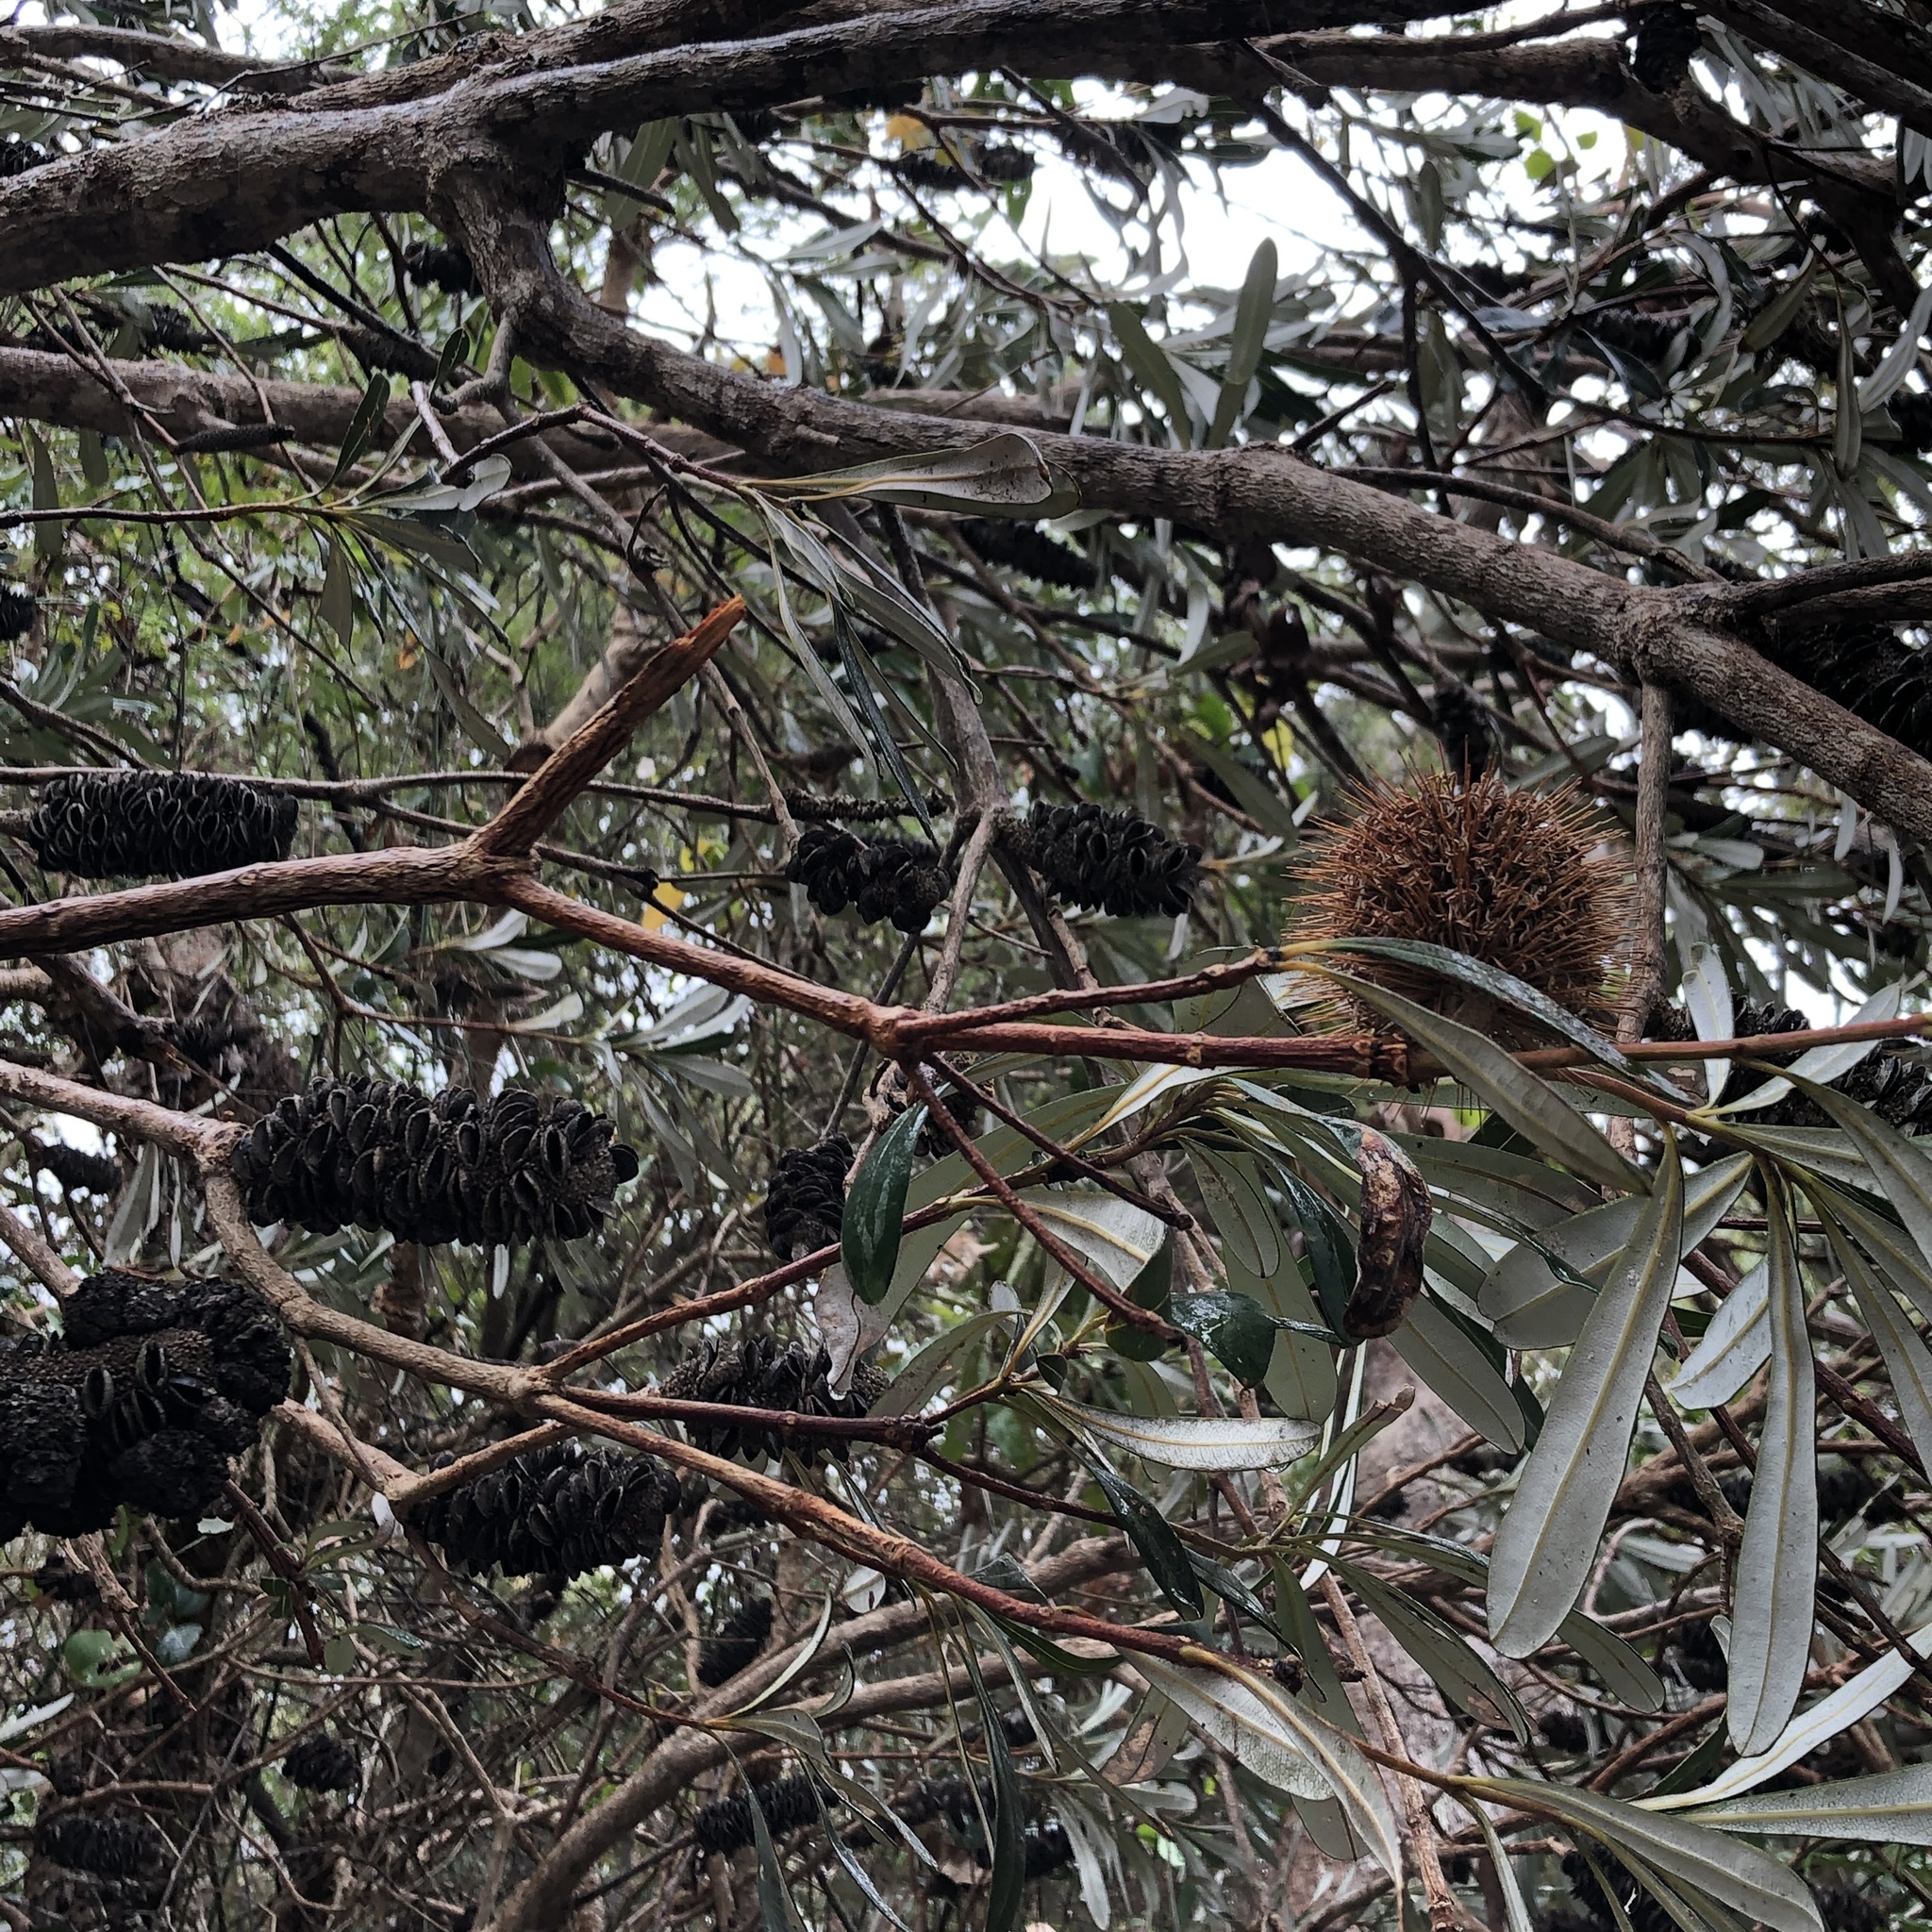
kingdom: Plantae
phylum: Tracheophyta
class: Magnoliopsida
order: Proteales
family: Proteaceae
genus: Banksia
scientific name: Banksia integrifolia
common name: White-honeysuckle
